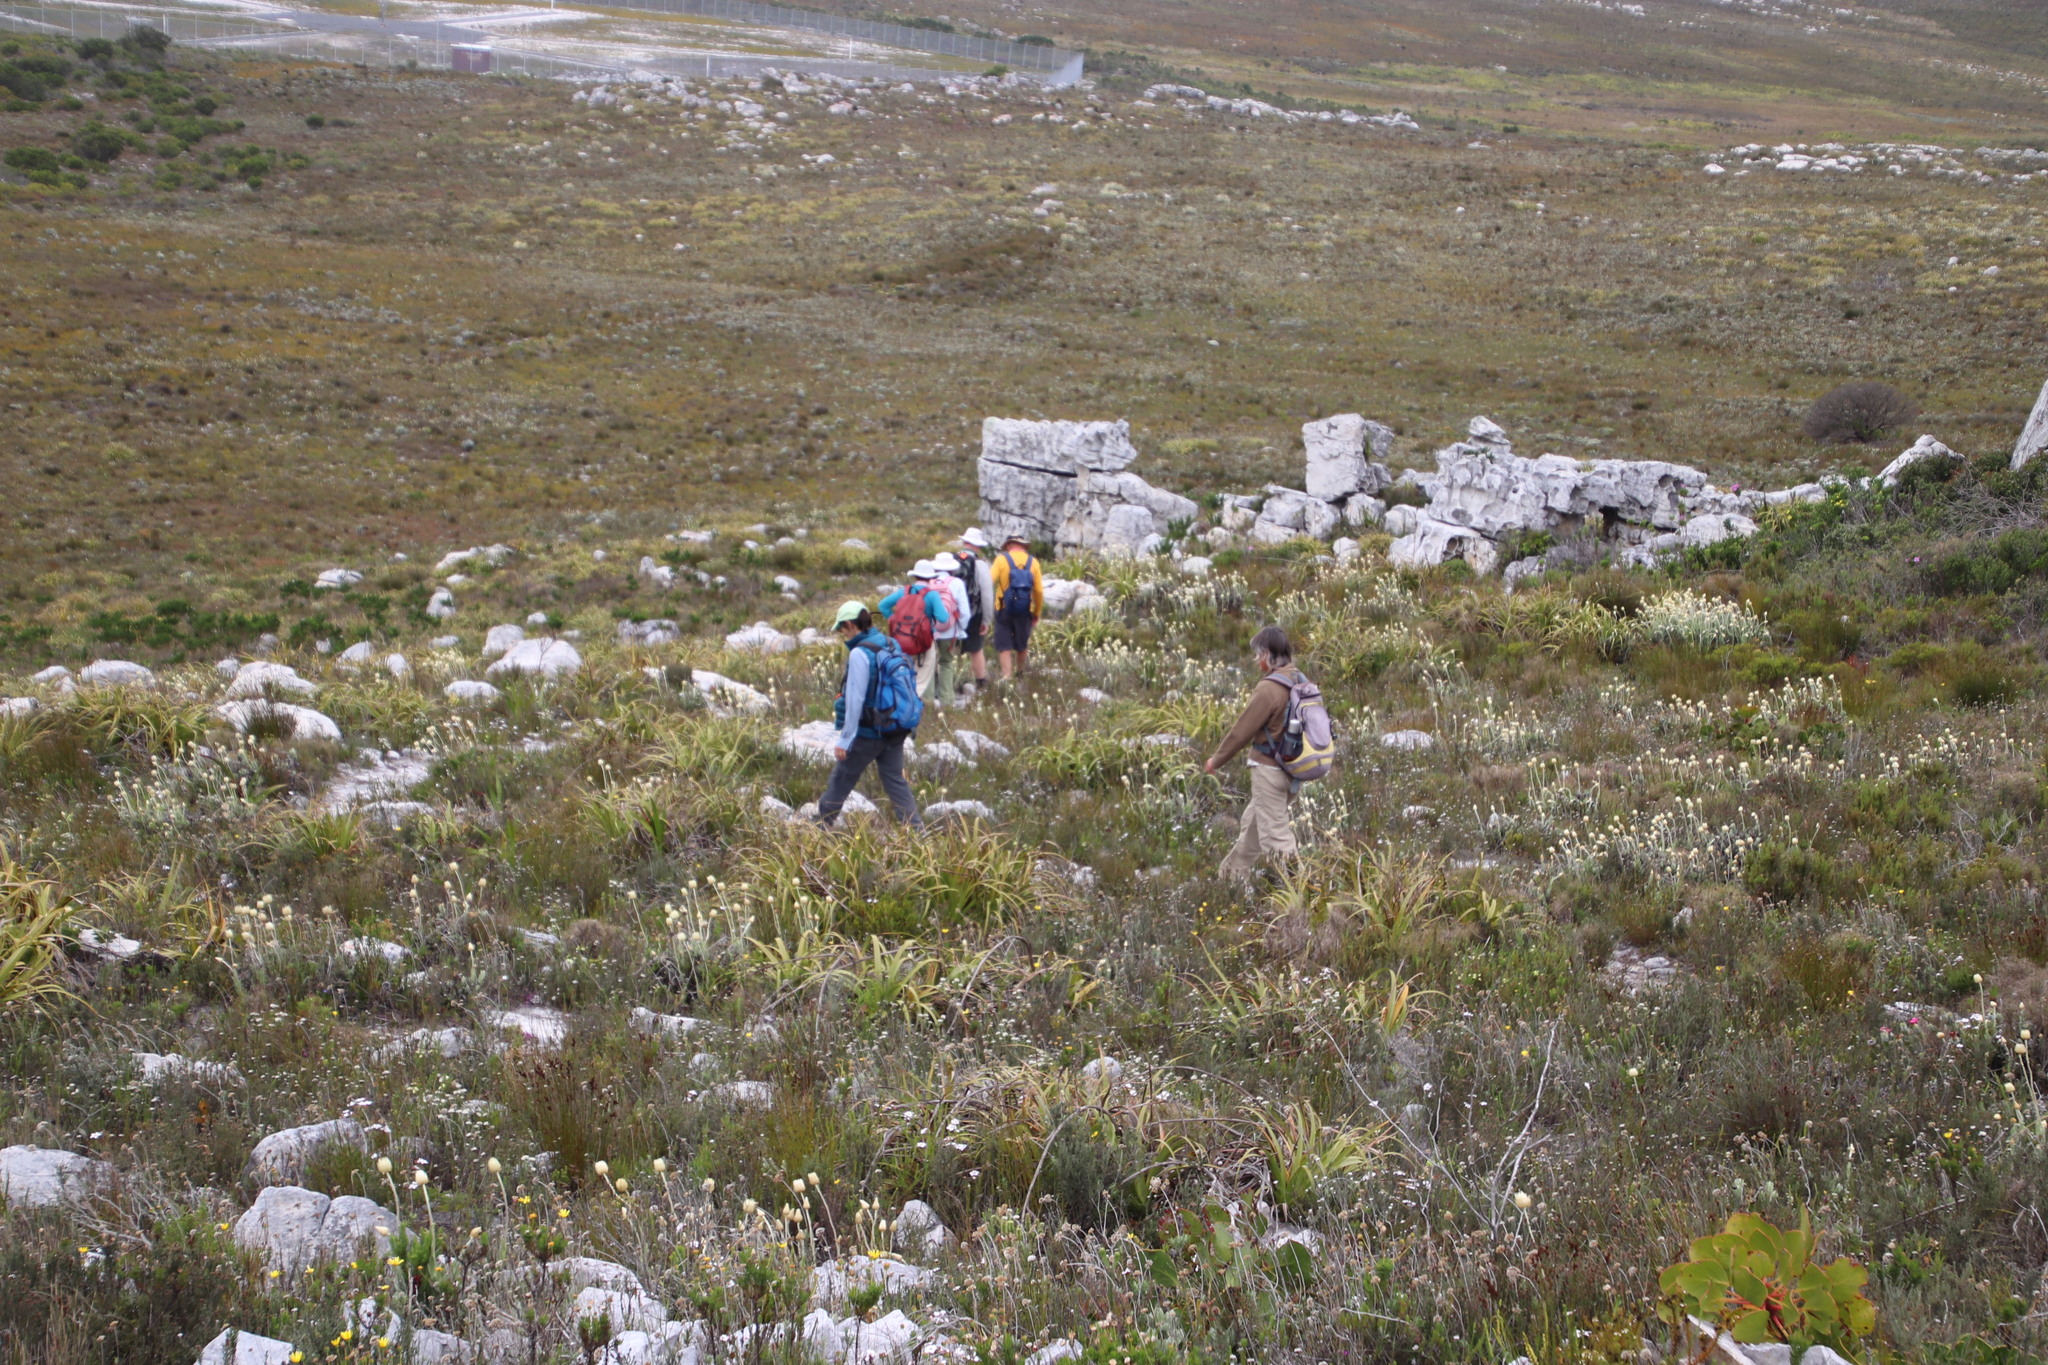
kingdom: Plantae
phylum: Tracheophyta
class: Magnoliopsida
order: Asterales
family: Asteraceae
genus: Syncarpha
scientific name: Syncarpha speciosissima
